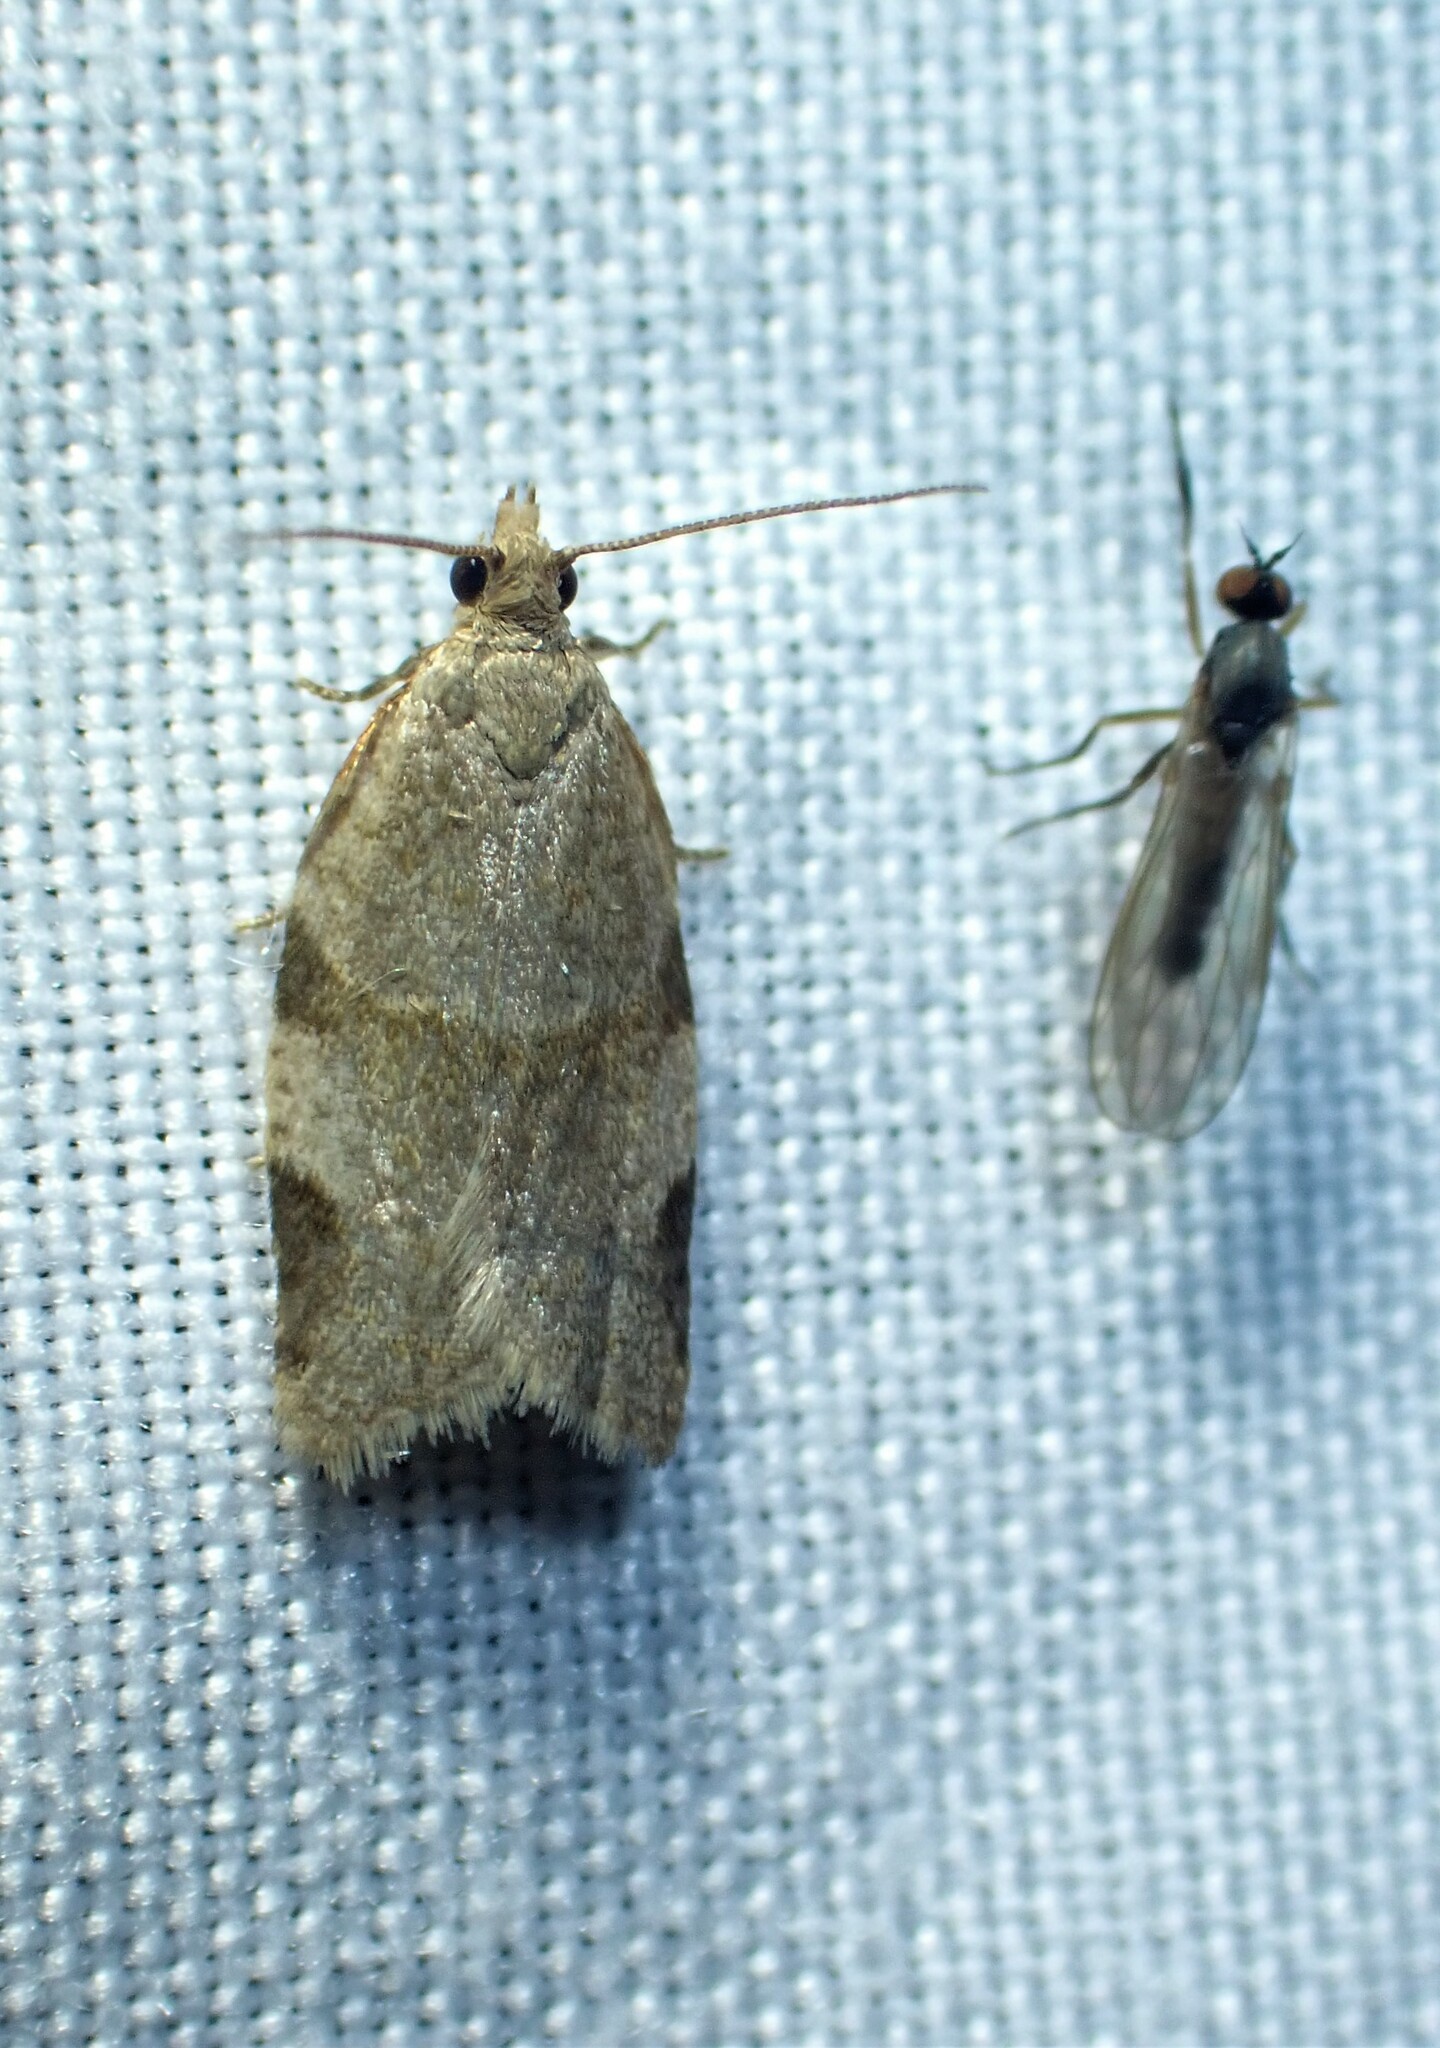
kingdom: Animalia
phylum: Arthropoda
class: Insecta
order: Lepidoptera
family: Tortricidae
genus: Clepsis
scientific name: Clepsis virescana
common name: Greenish apple moth
